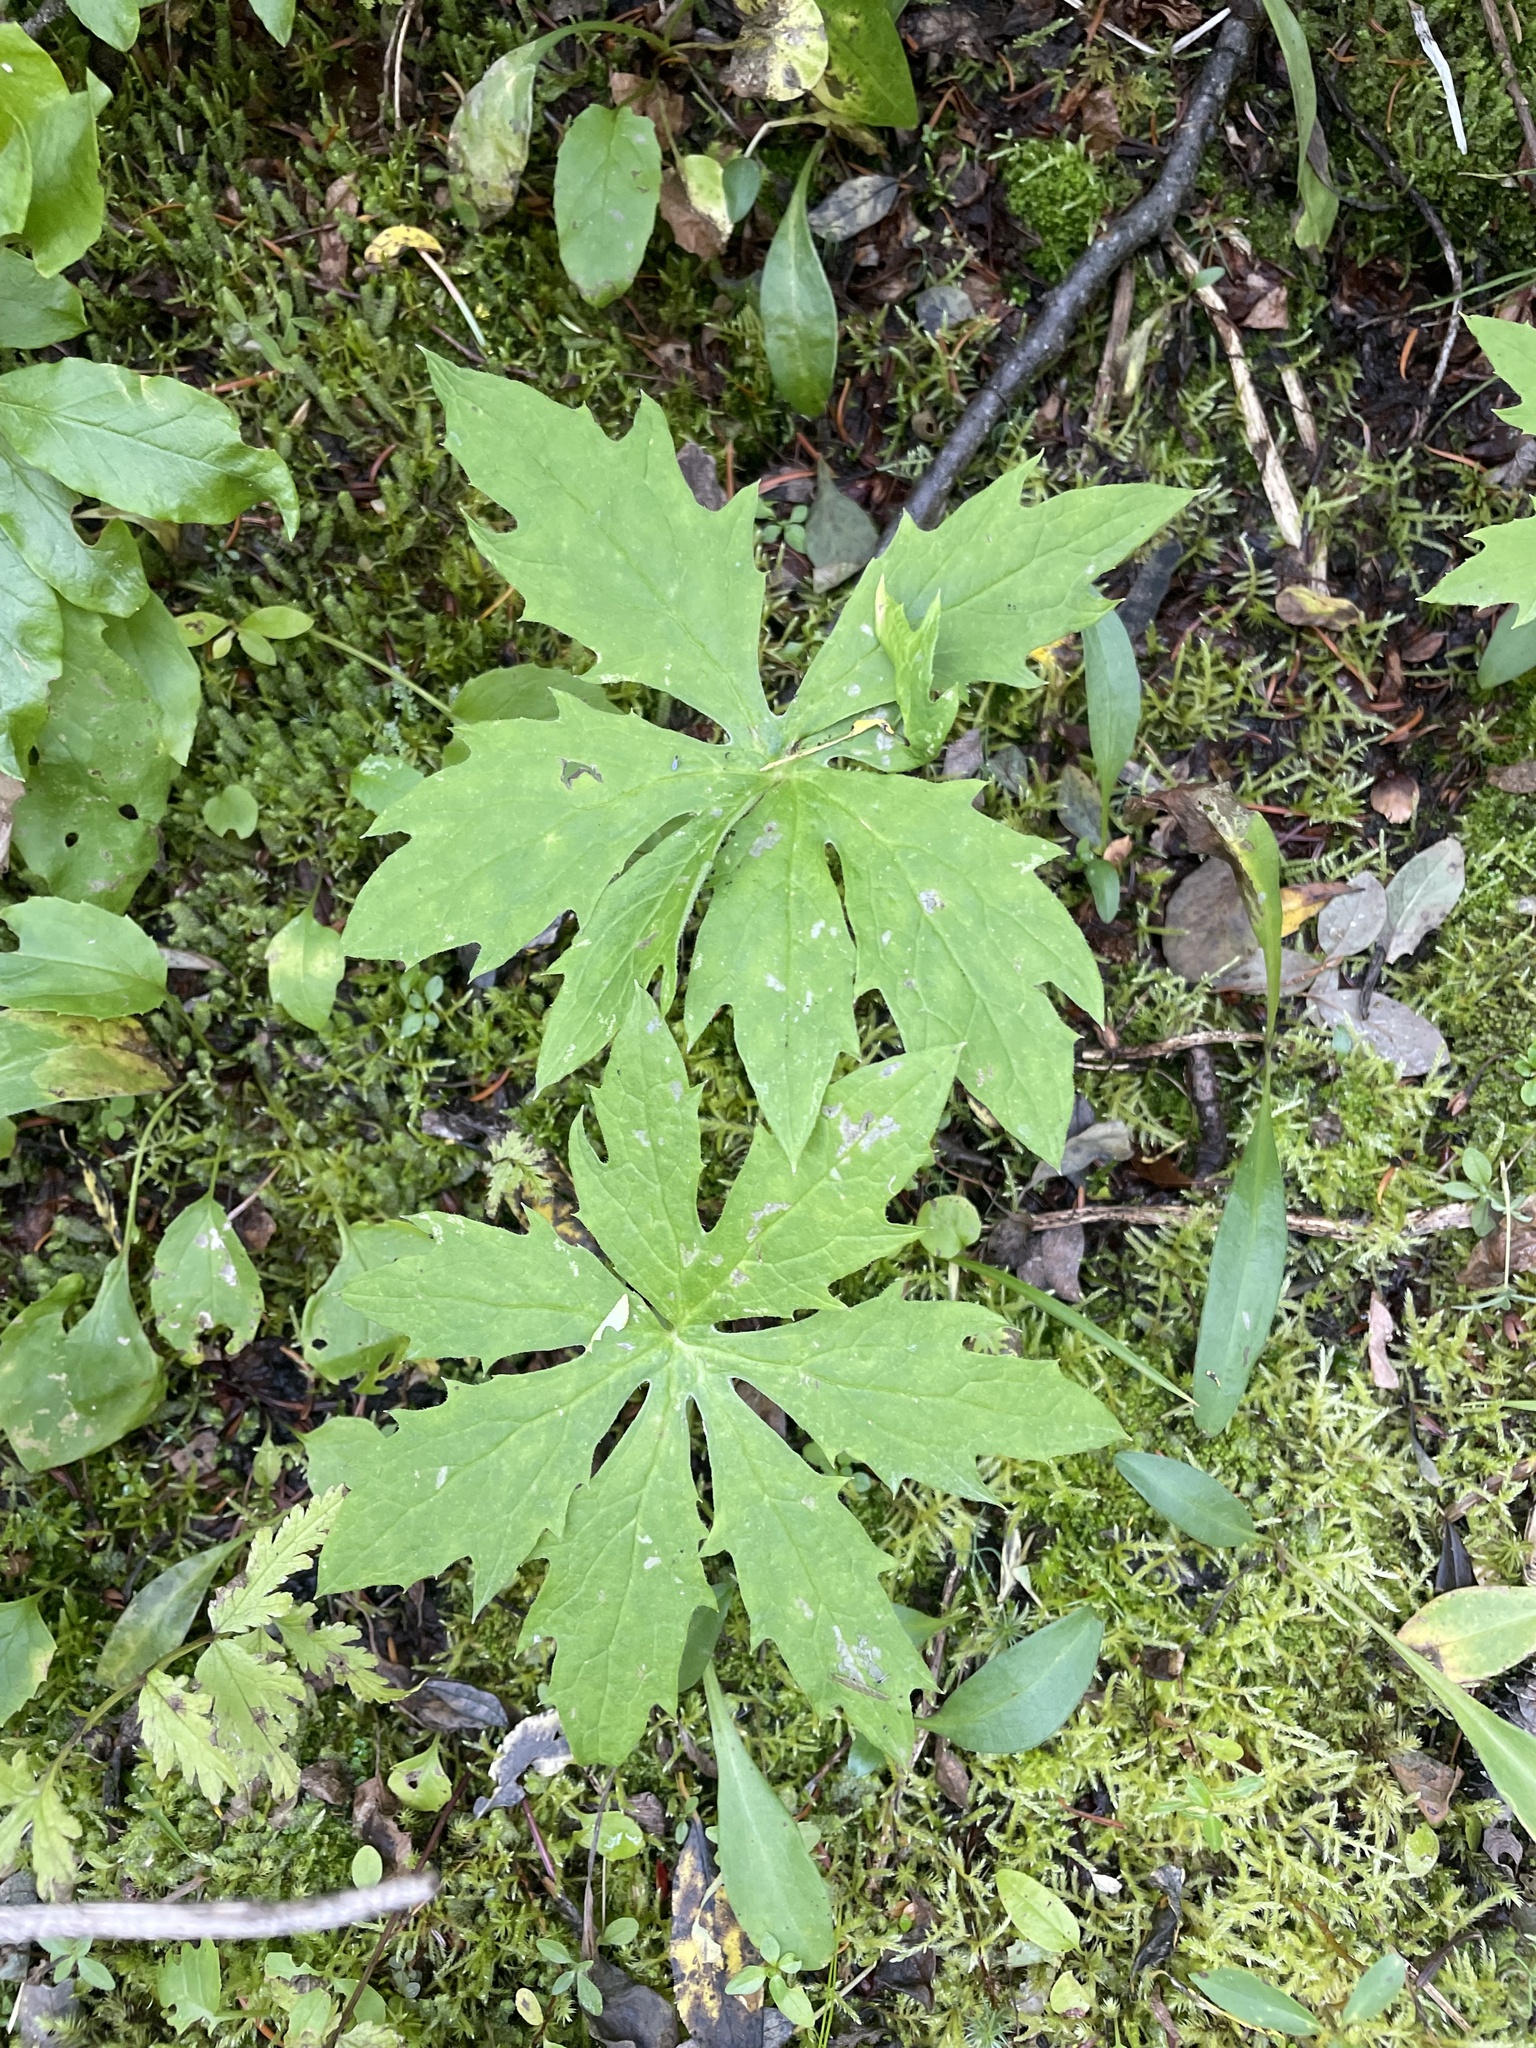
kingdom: Plantae
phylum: Tracheophyta
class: Magnoliopsida
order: Asterales
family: Asteraceae
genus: Petasites
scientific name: Petasites frigidus
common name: Arctic butterbur
